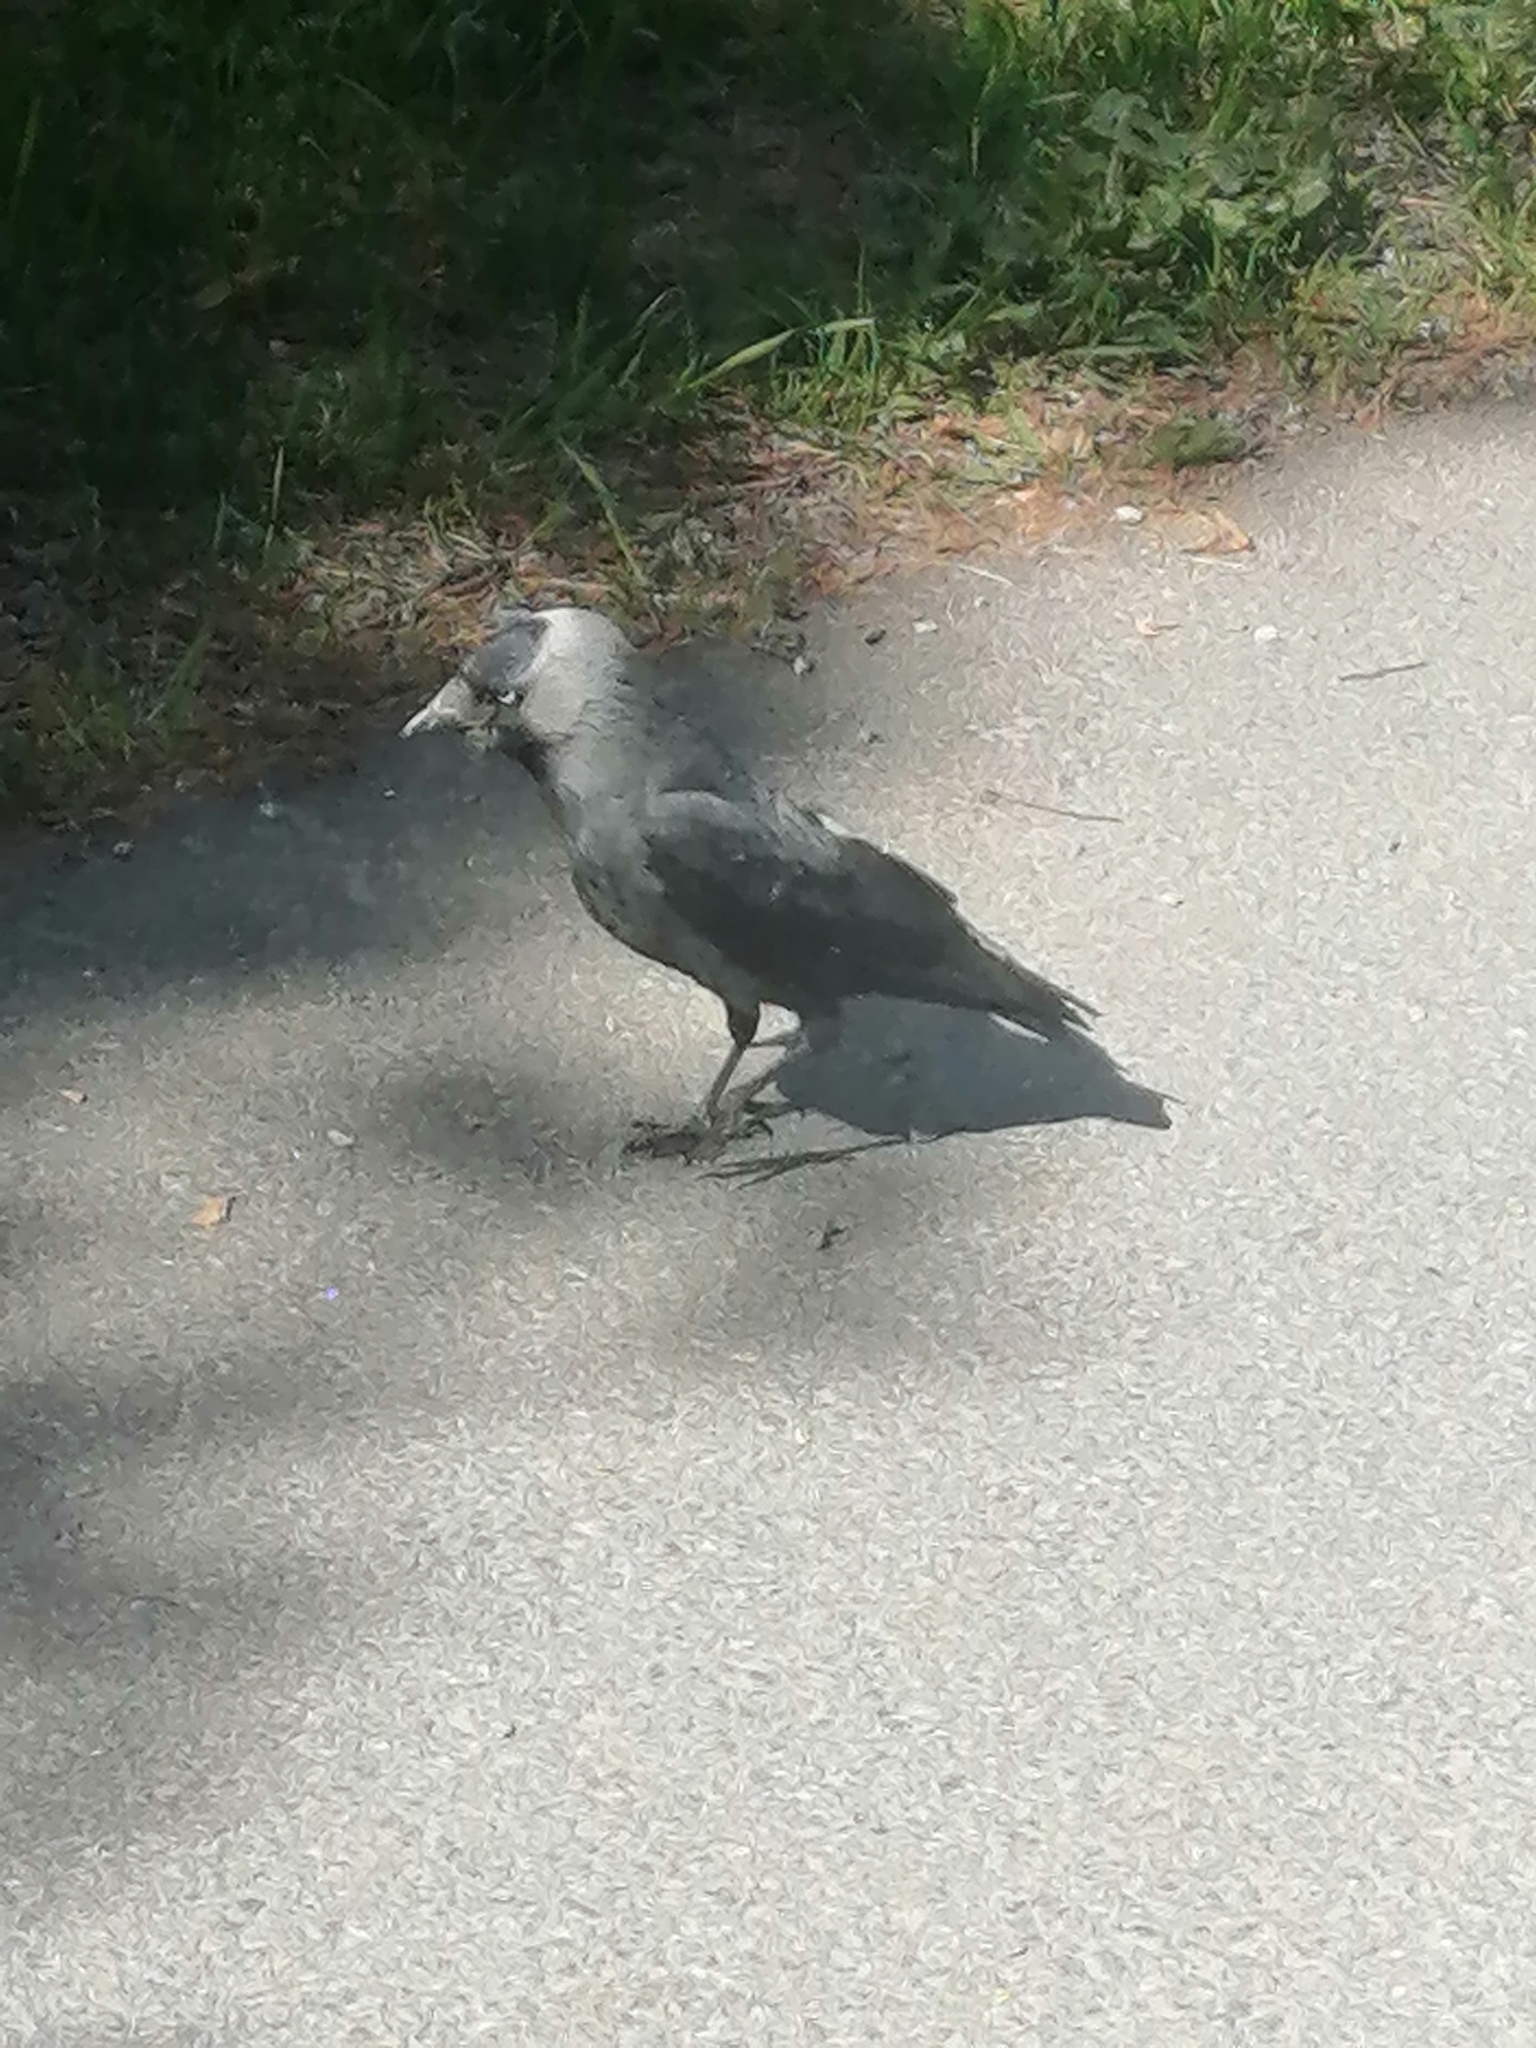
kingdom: Animalia
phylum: Chordata
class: Aves
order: Passeriformes
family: Corvidae
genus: Coloeus
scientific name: Coloeus monedula
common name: Western jackdaw
